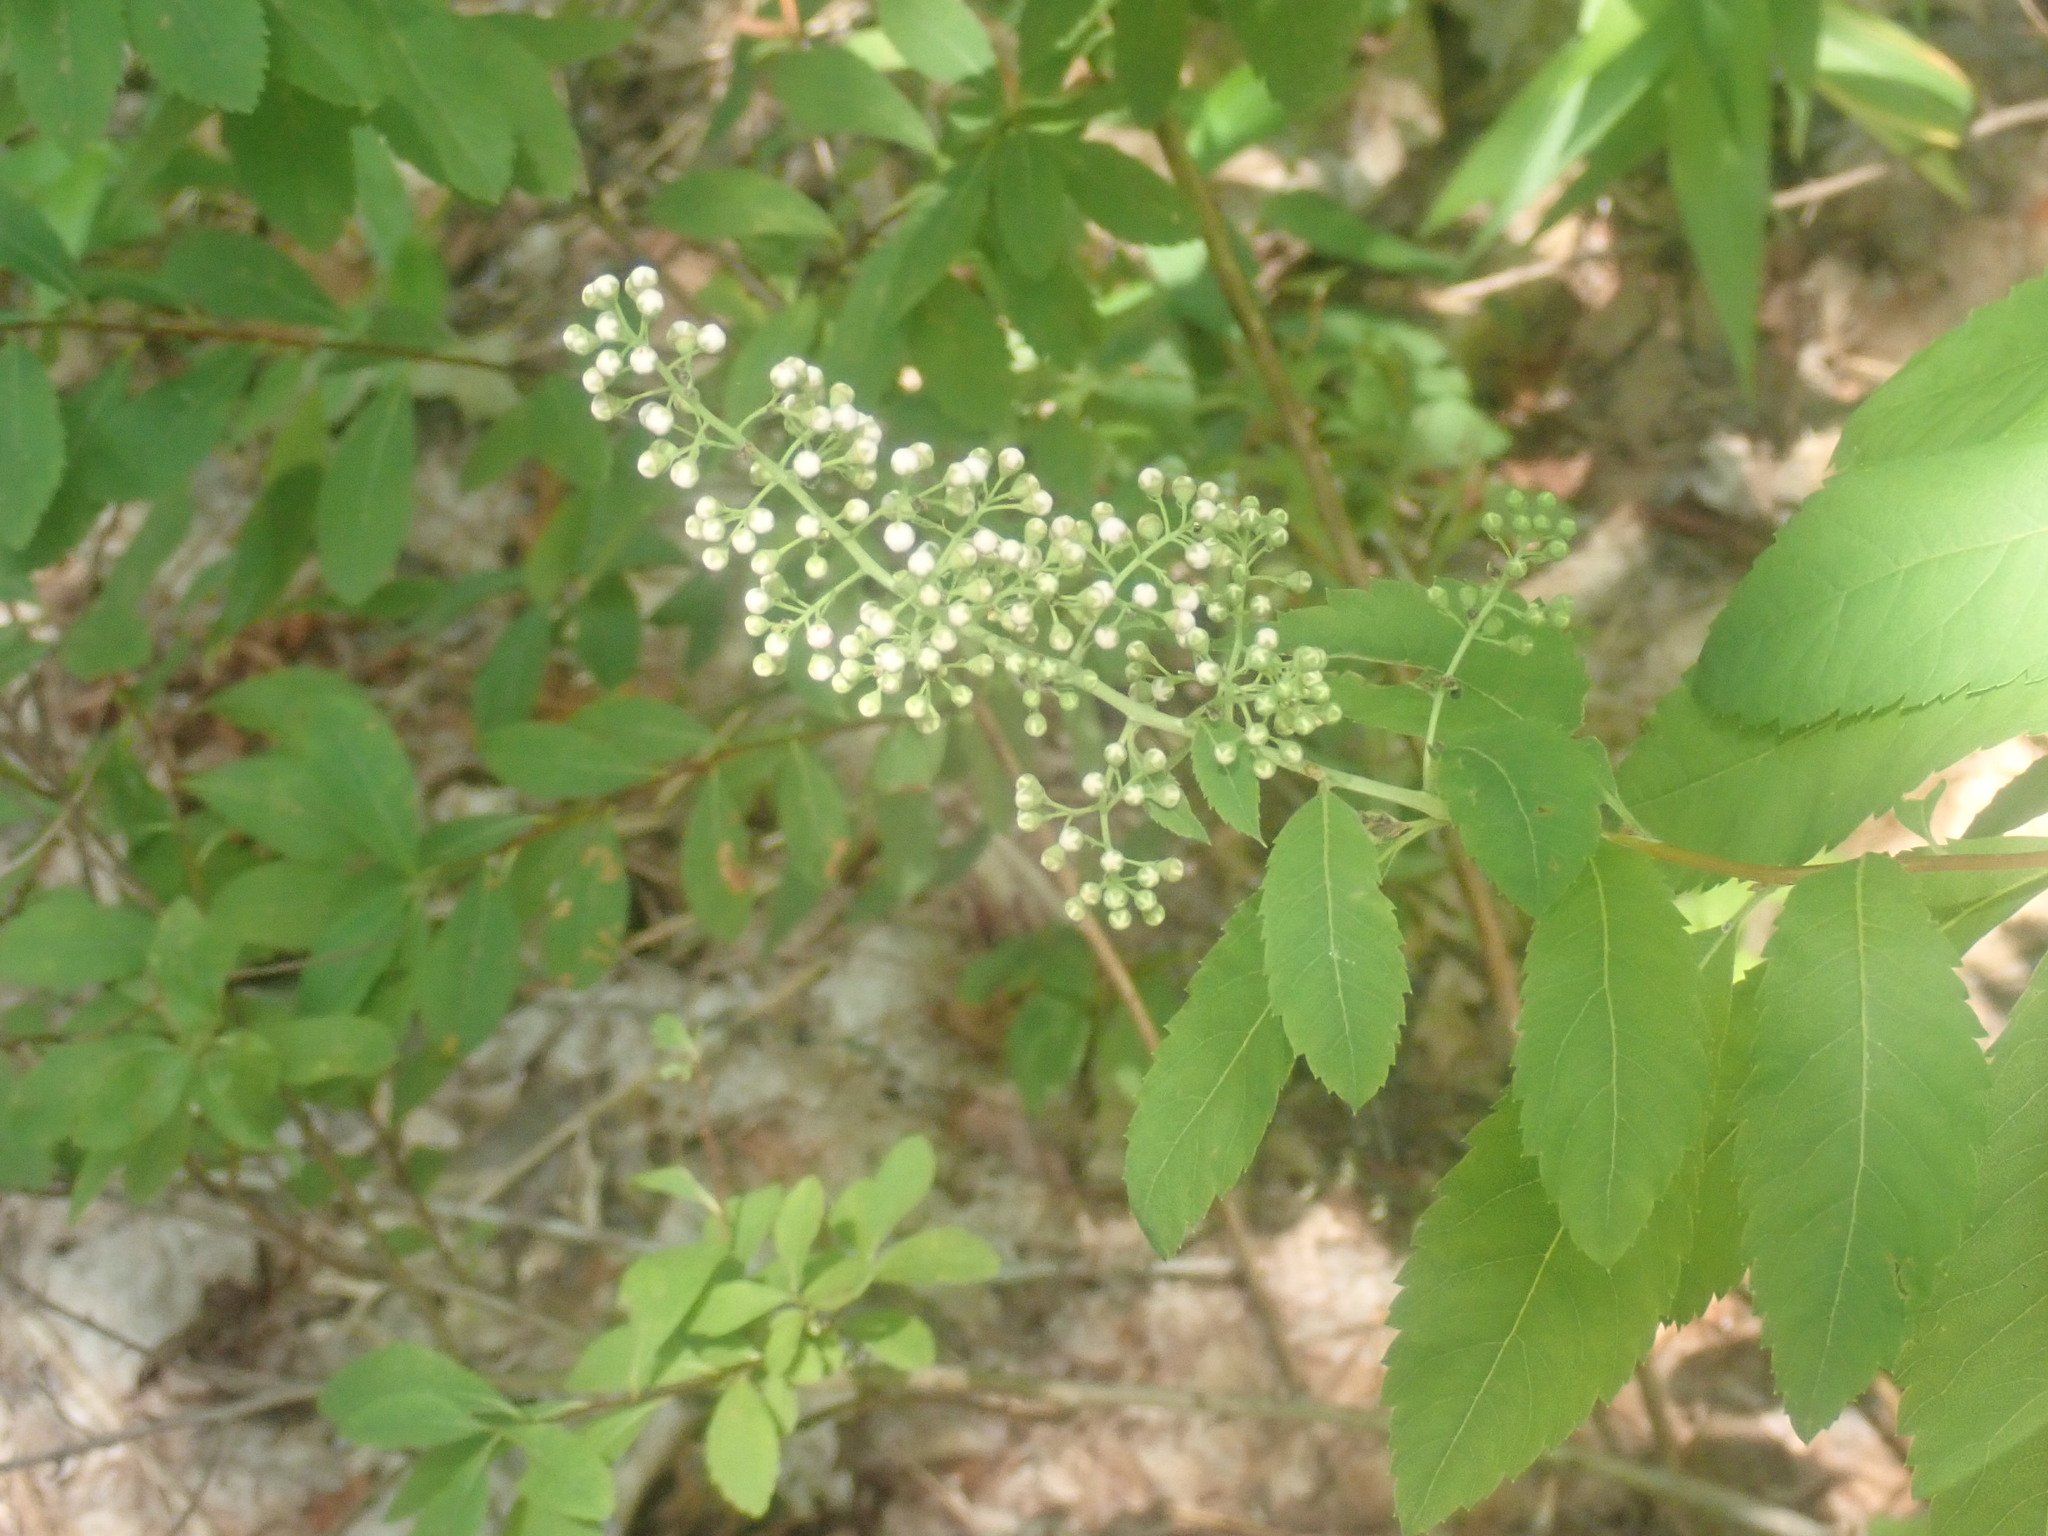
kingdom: Plantae
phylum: Tracheophyta
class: Magnoliopsida
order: Rosales
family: Rosaceae
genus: Spiraea
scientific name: Spiraea alba
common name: Pale bridewort
